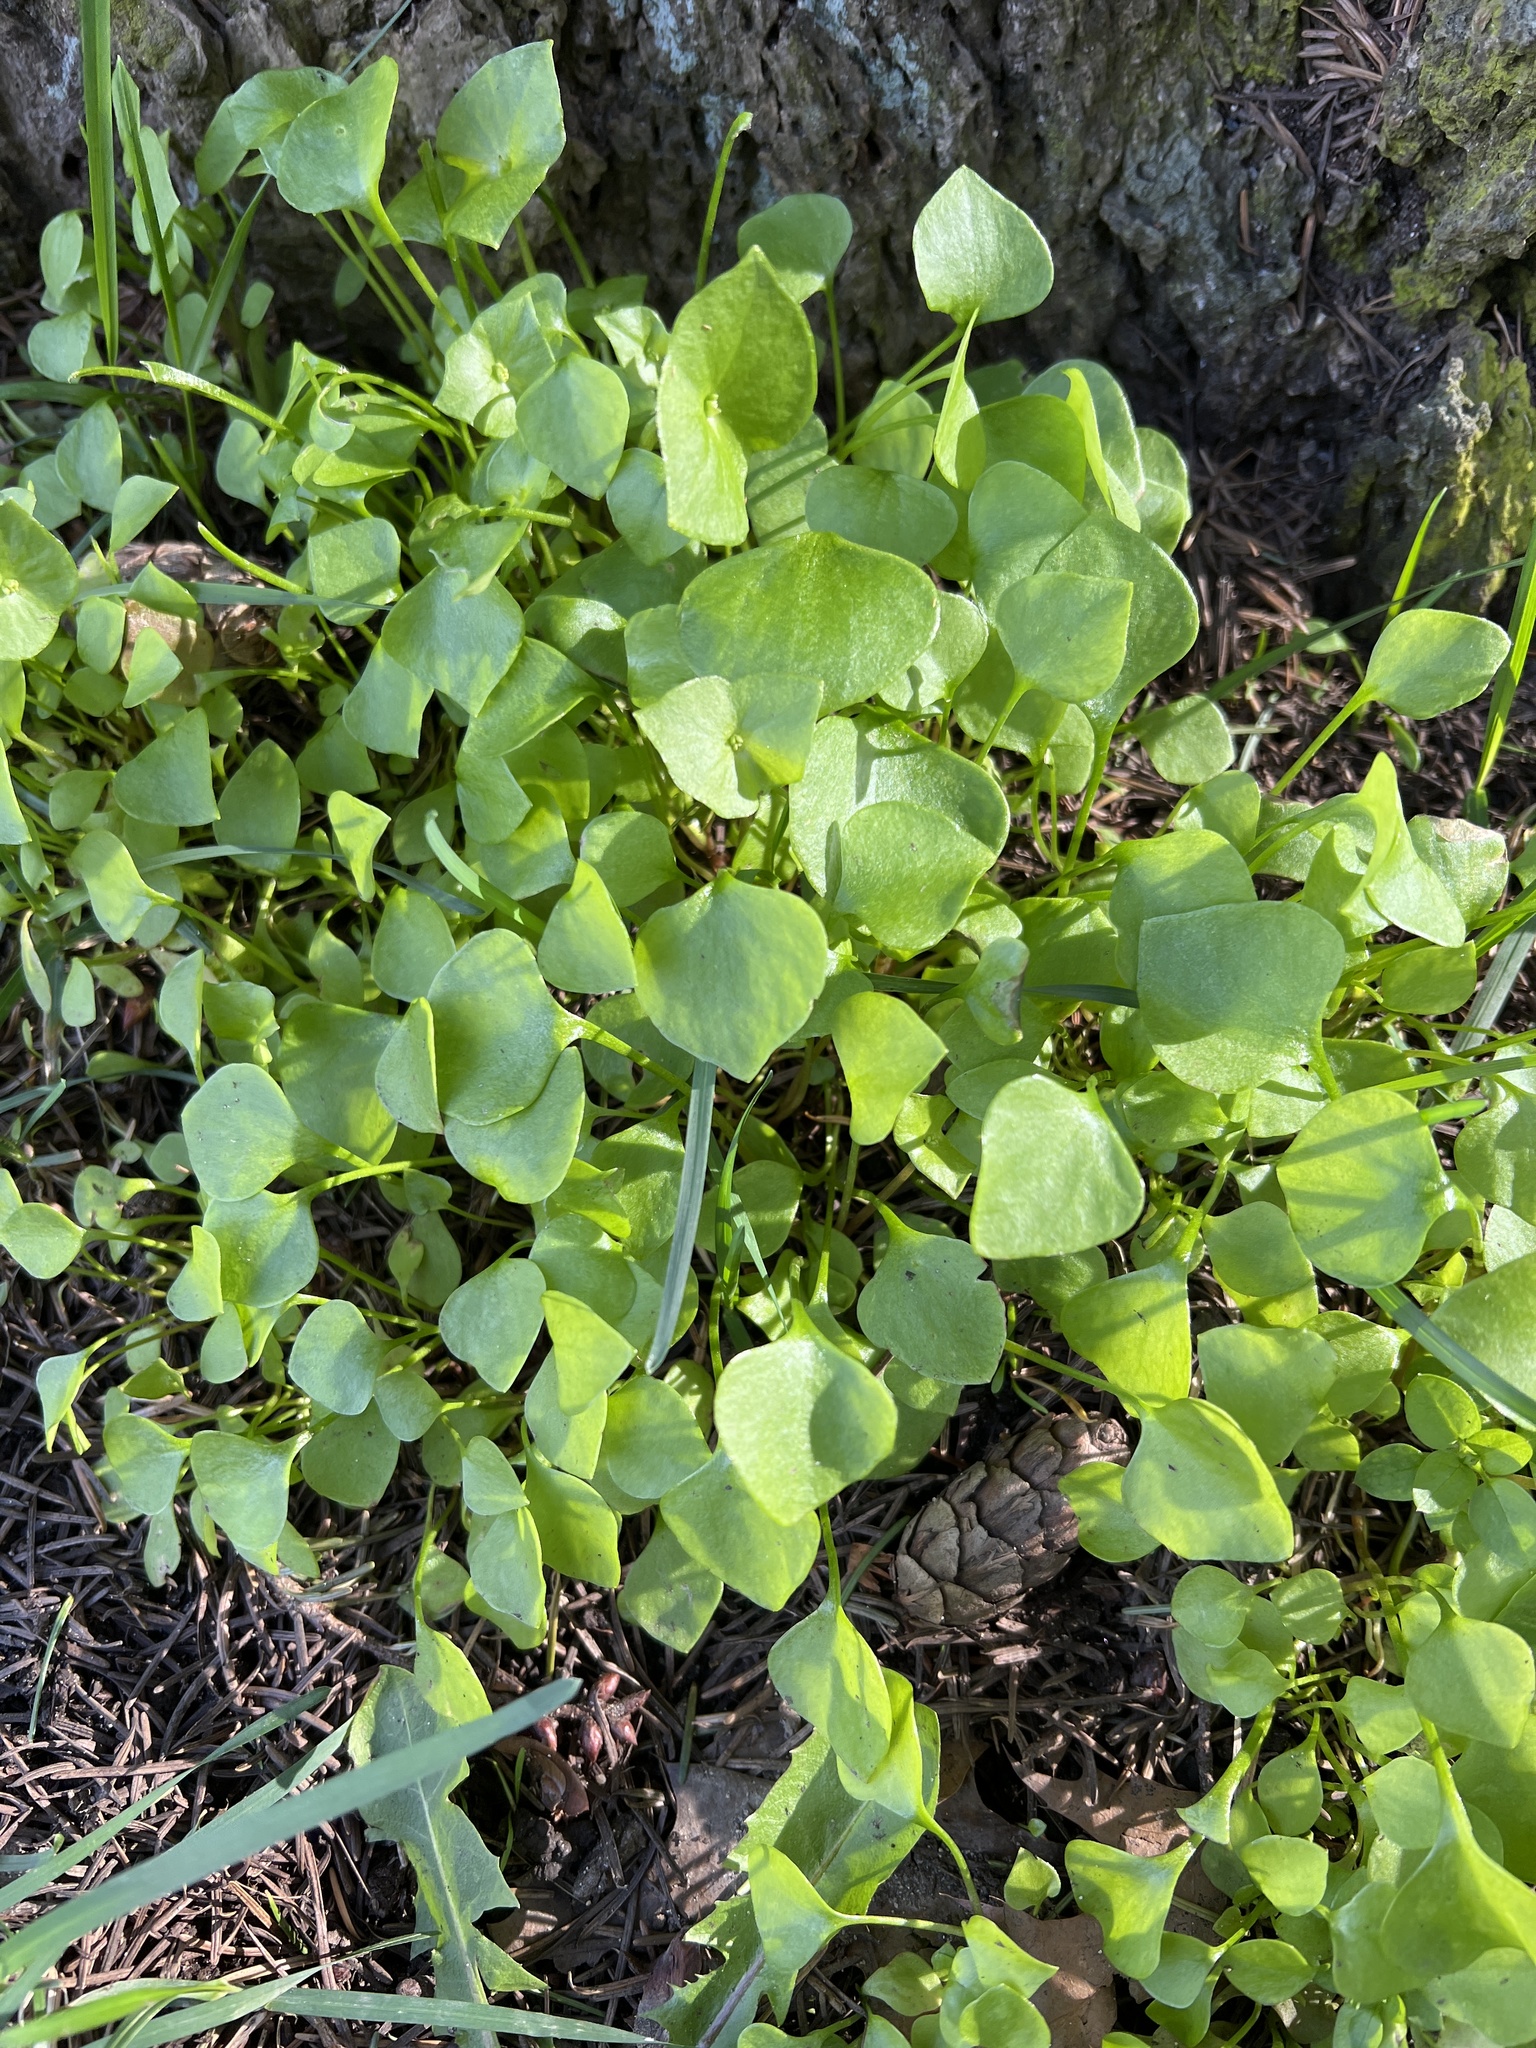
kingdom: Plantae
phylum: Tracheophyta
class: Magnoliopsida
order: Caryophyllales
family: Montiaceae
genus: Claytonia
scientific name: Claytonia perfoliata
